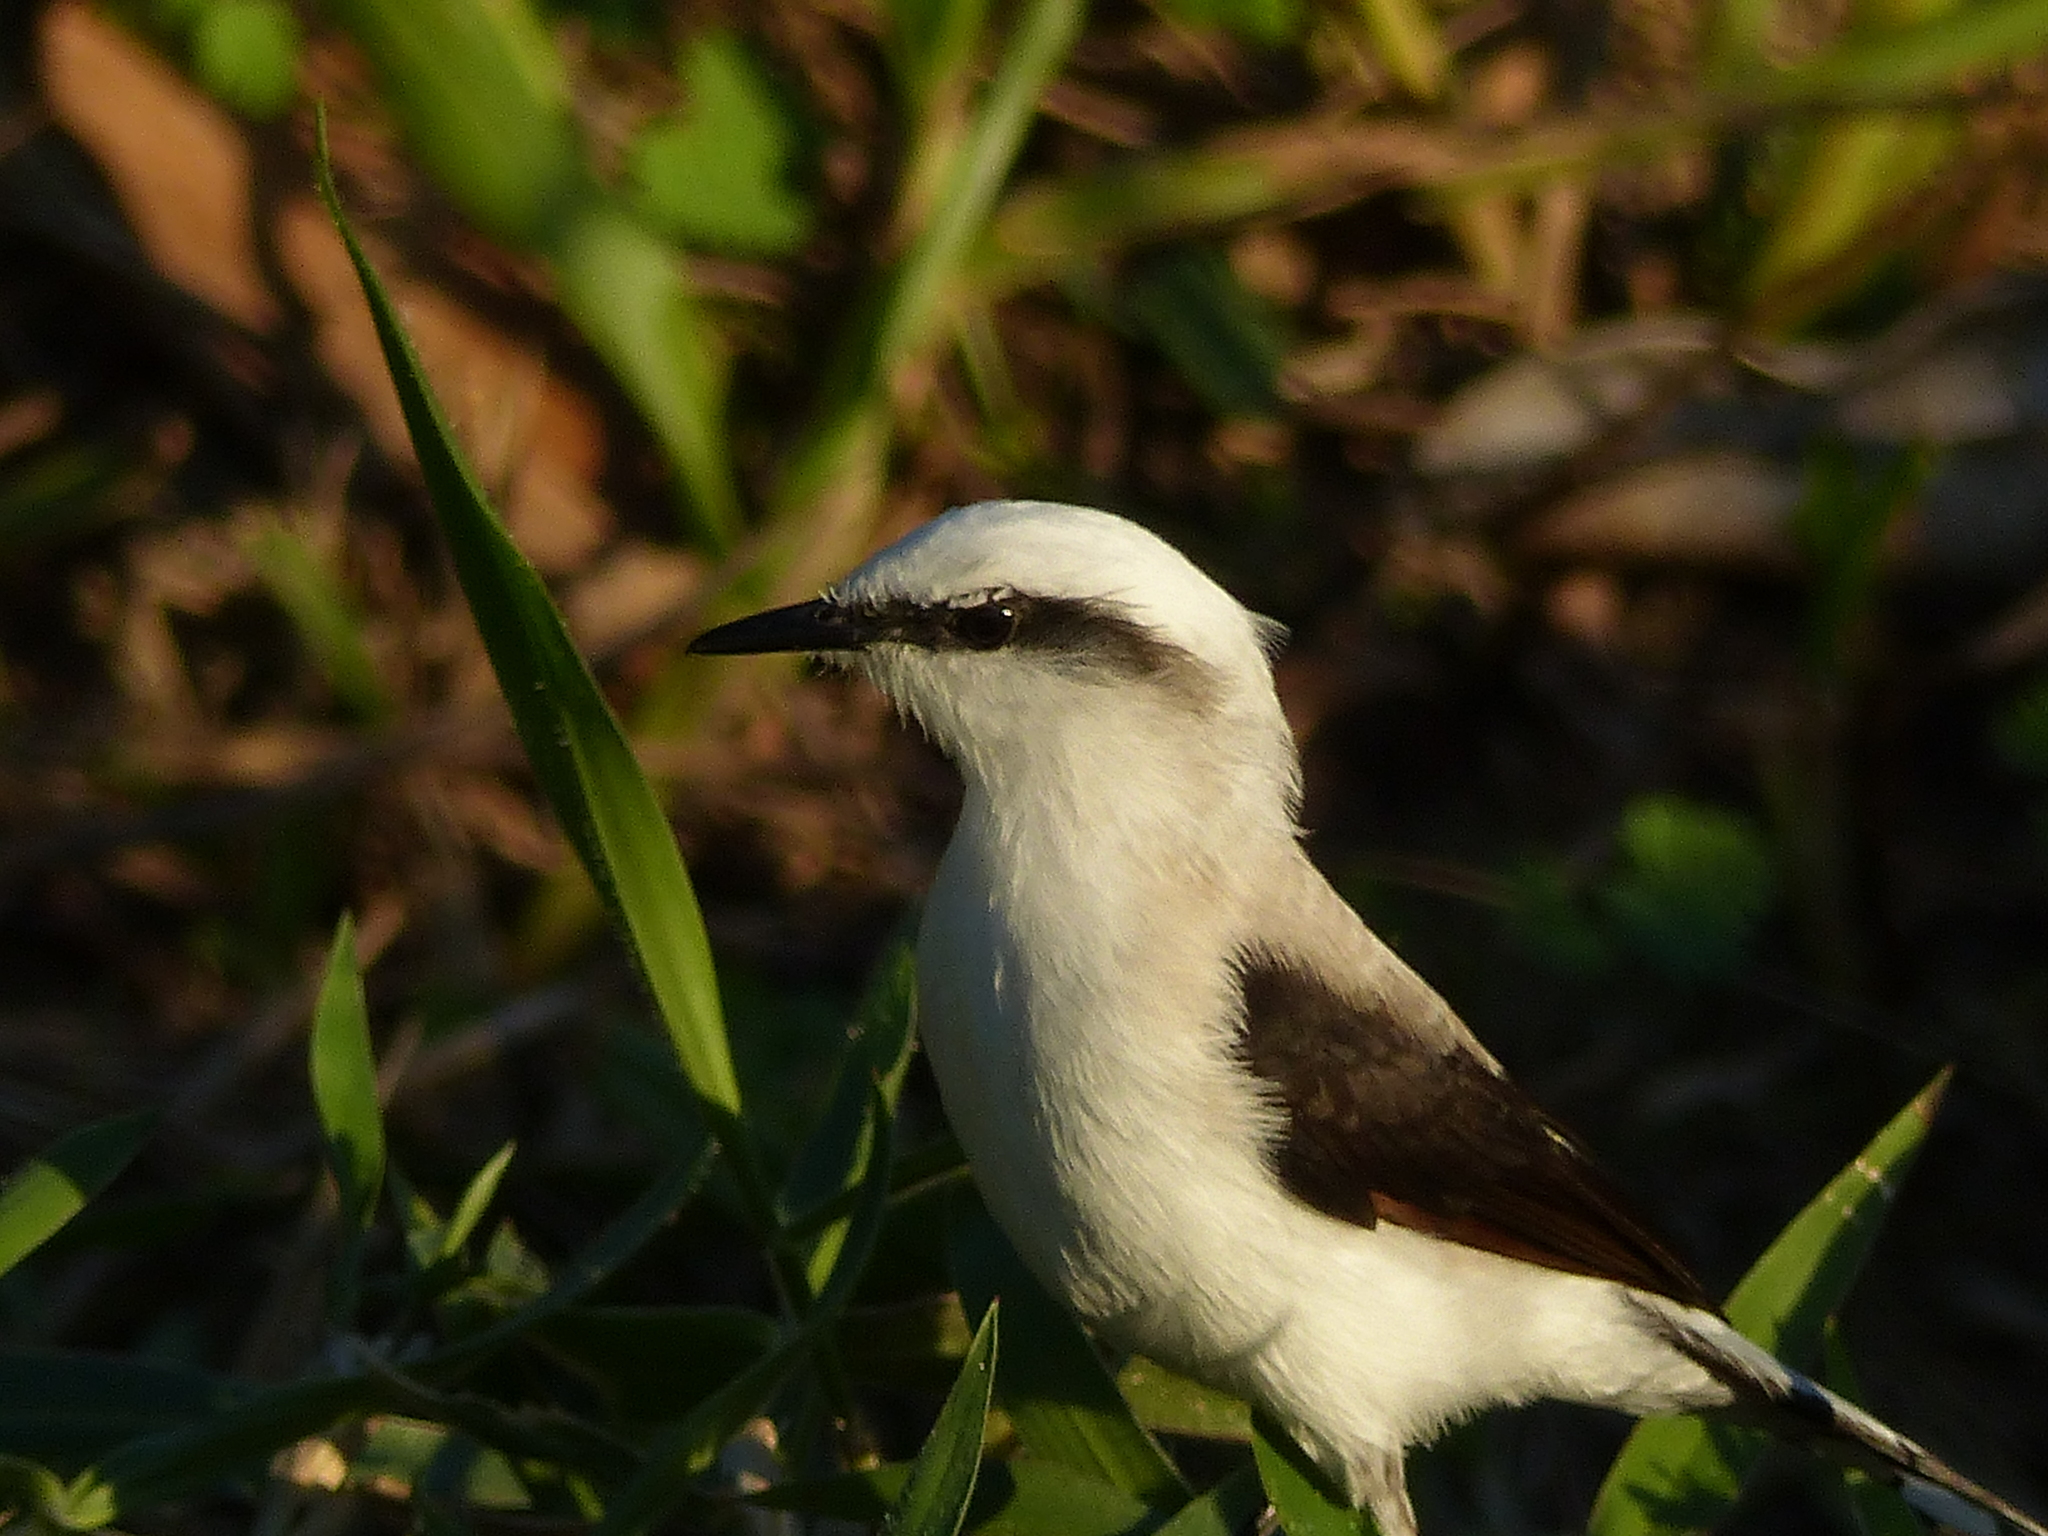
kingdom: Animalia
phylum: Chordata
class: Aves
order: Passeriformes
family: Tyrannidae
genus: Fluvicola
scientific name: Fluvicola nengeta
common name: Masked water tyrant
